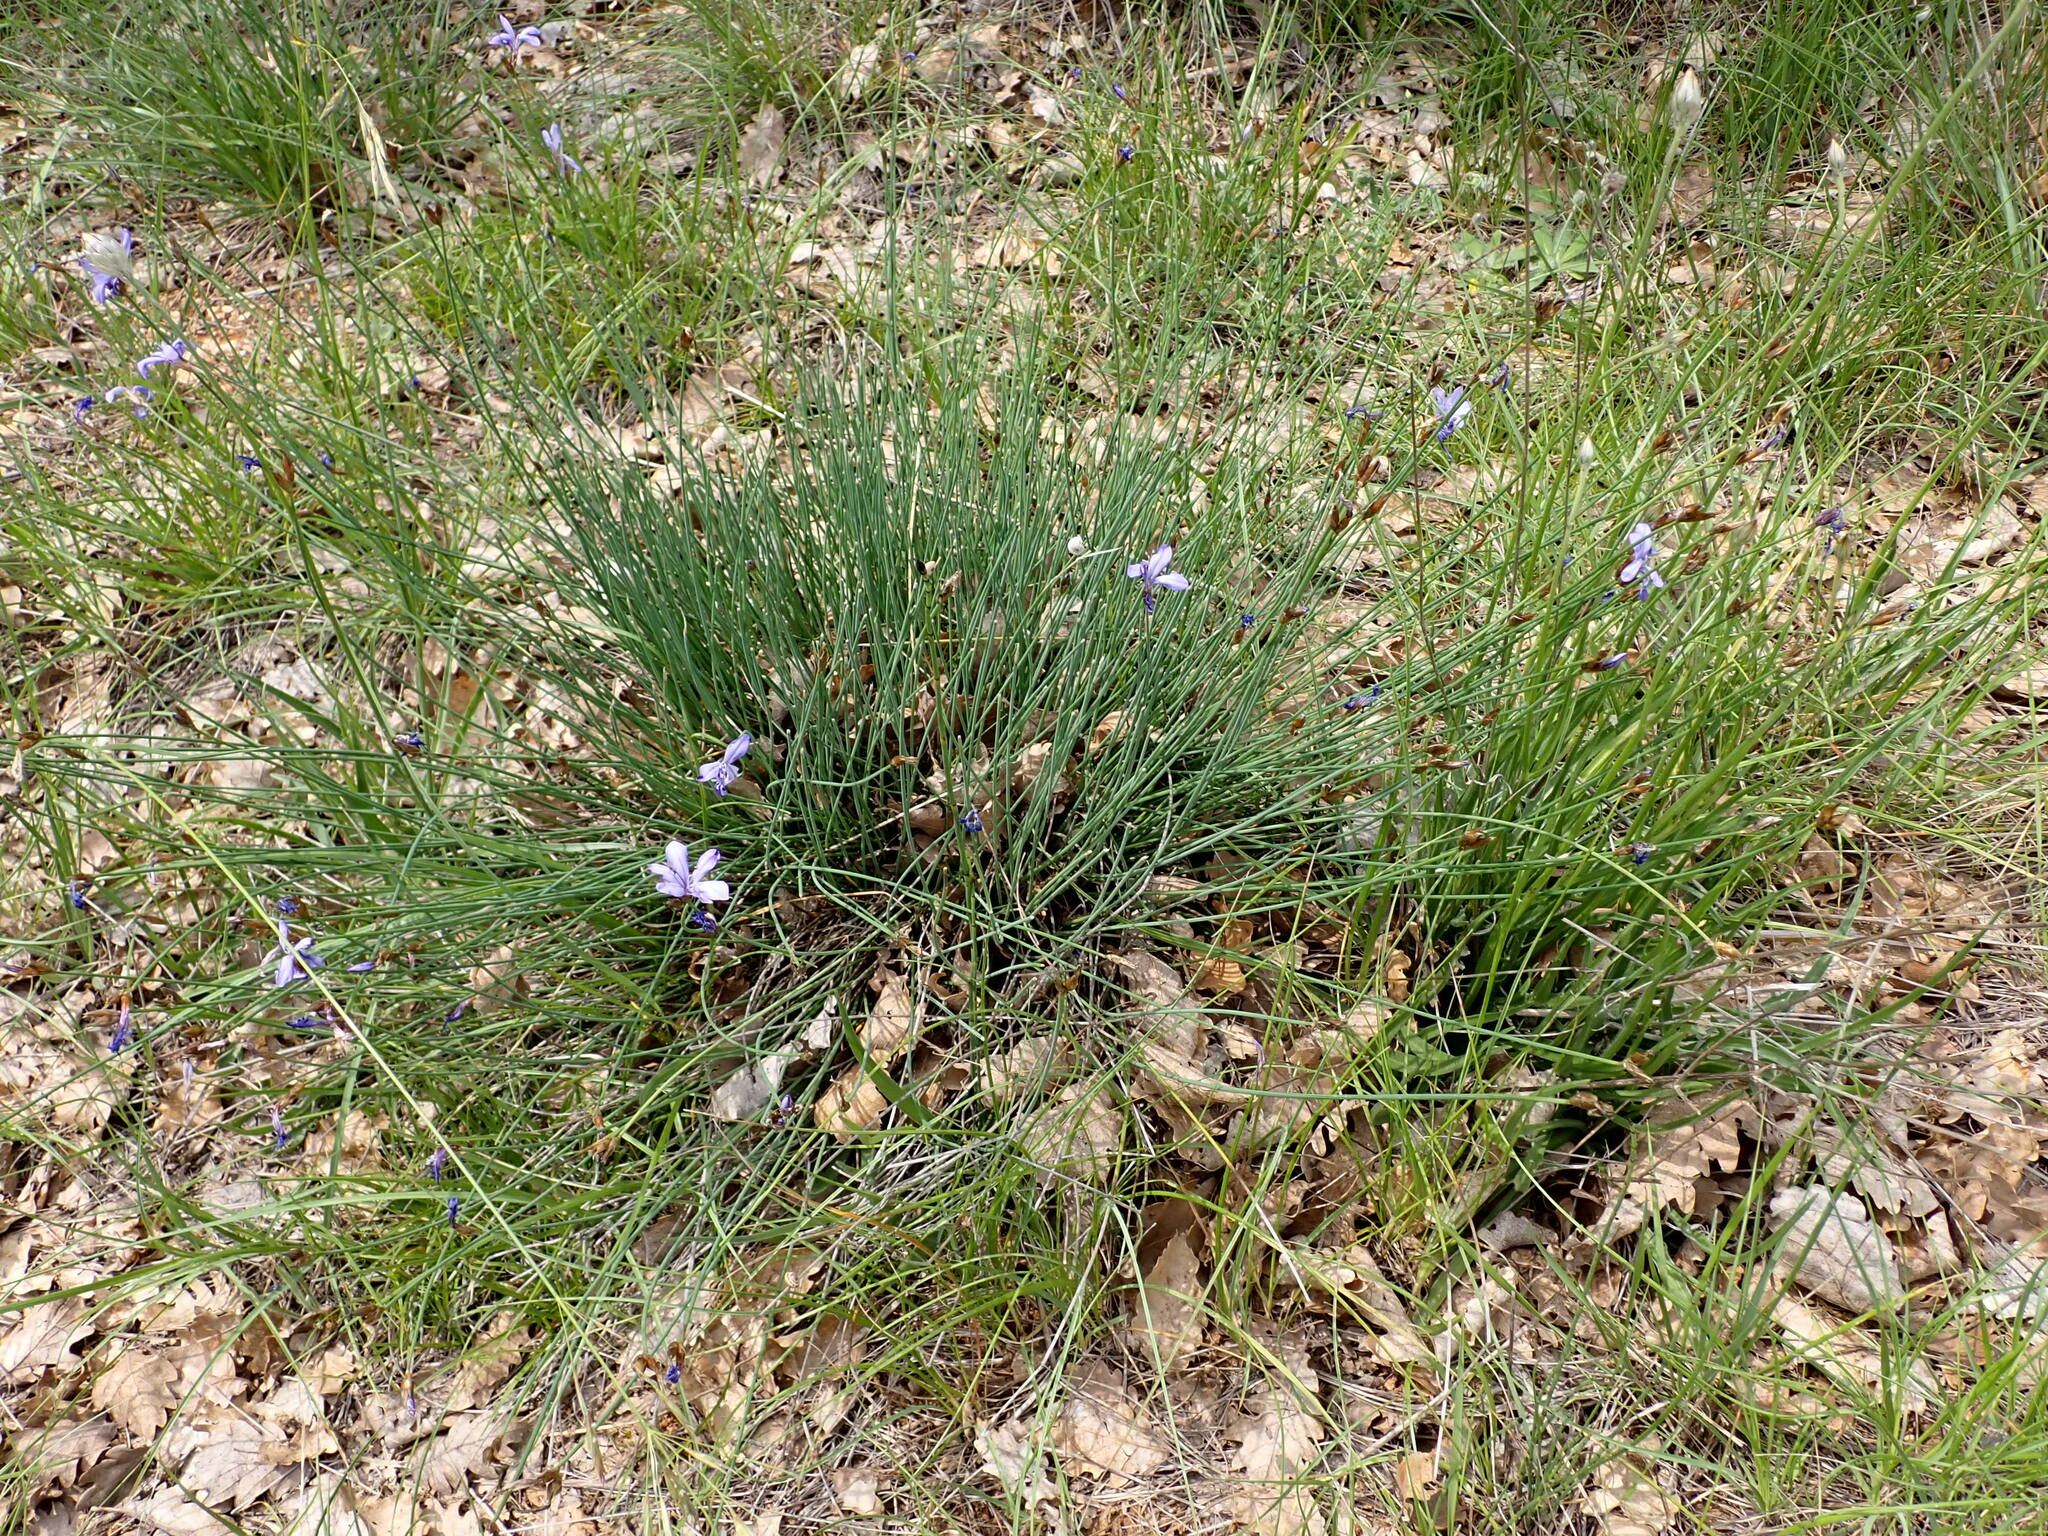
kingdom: Plantae
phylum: Tracheophyta
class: Liliopsida
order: Asparagales
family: Asparagaceae
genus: Aphyllanthes
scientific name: Aphyllanthes monspeliensis
